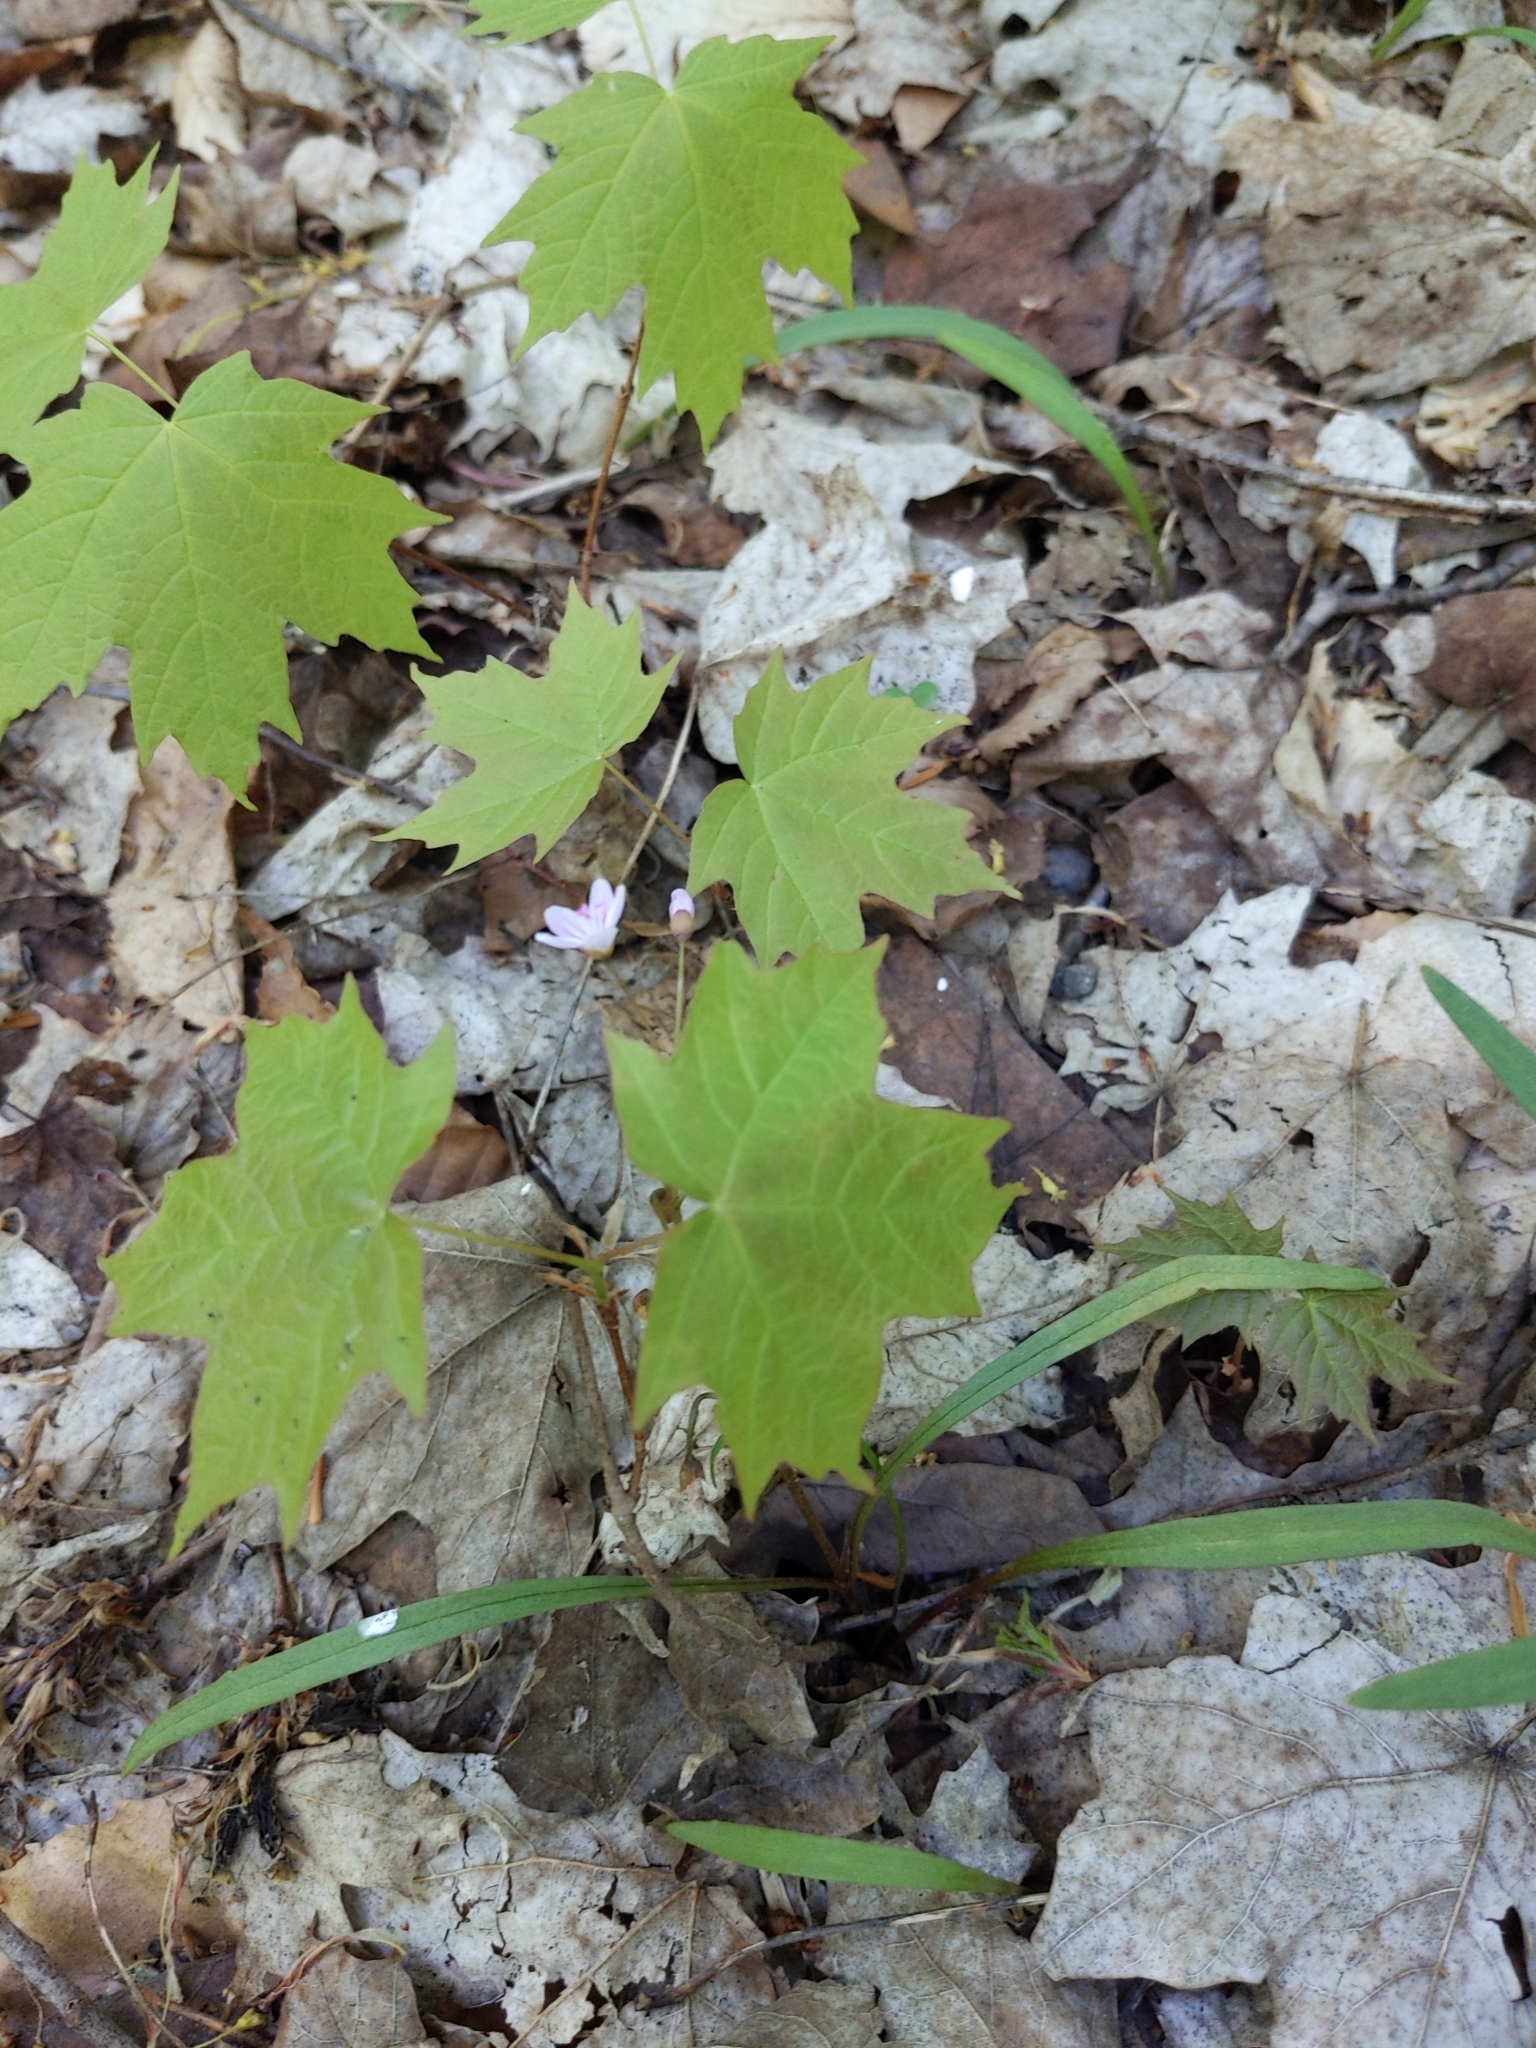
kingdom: Plantae
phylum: Tracheophyta
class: Magnoliopsida
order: Caryophyllales
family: Montiaceae
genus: Claytonia
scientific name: Claytonia virginica
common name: Virginia springbeauty
